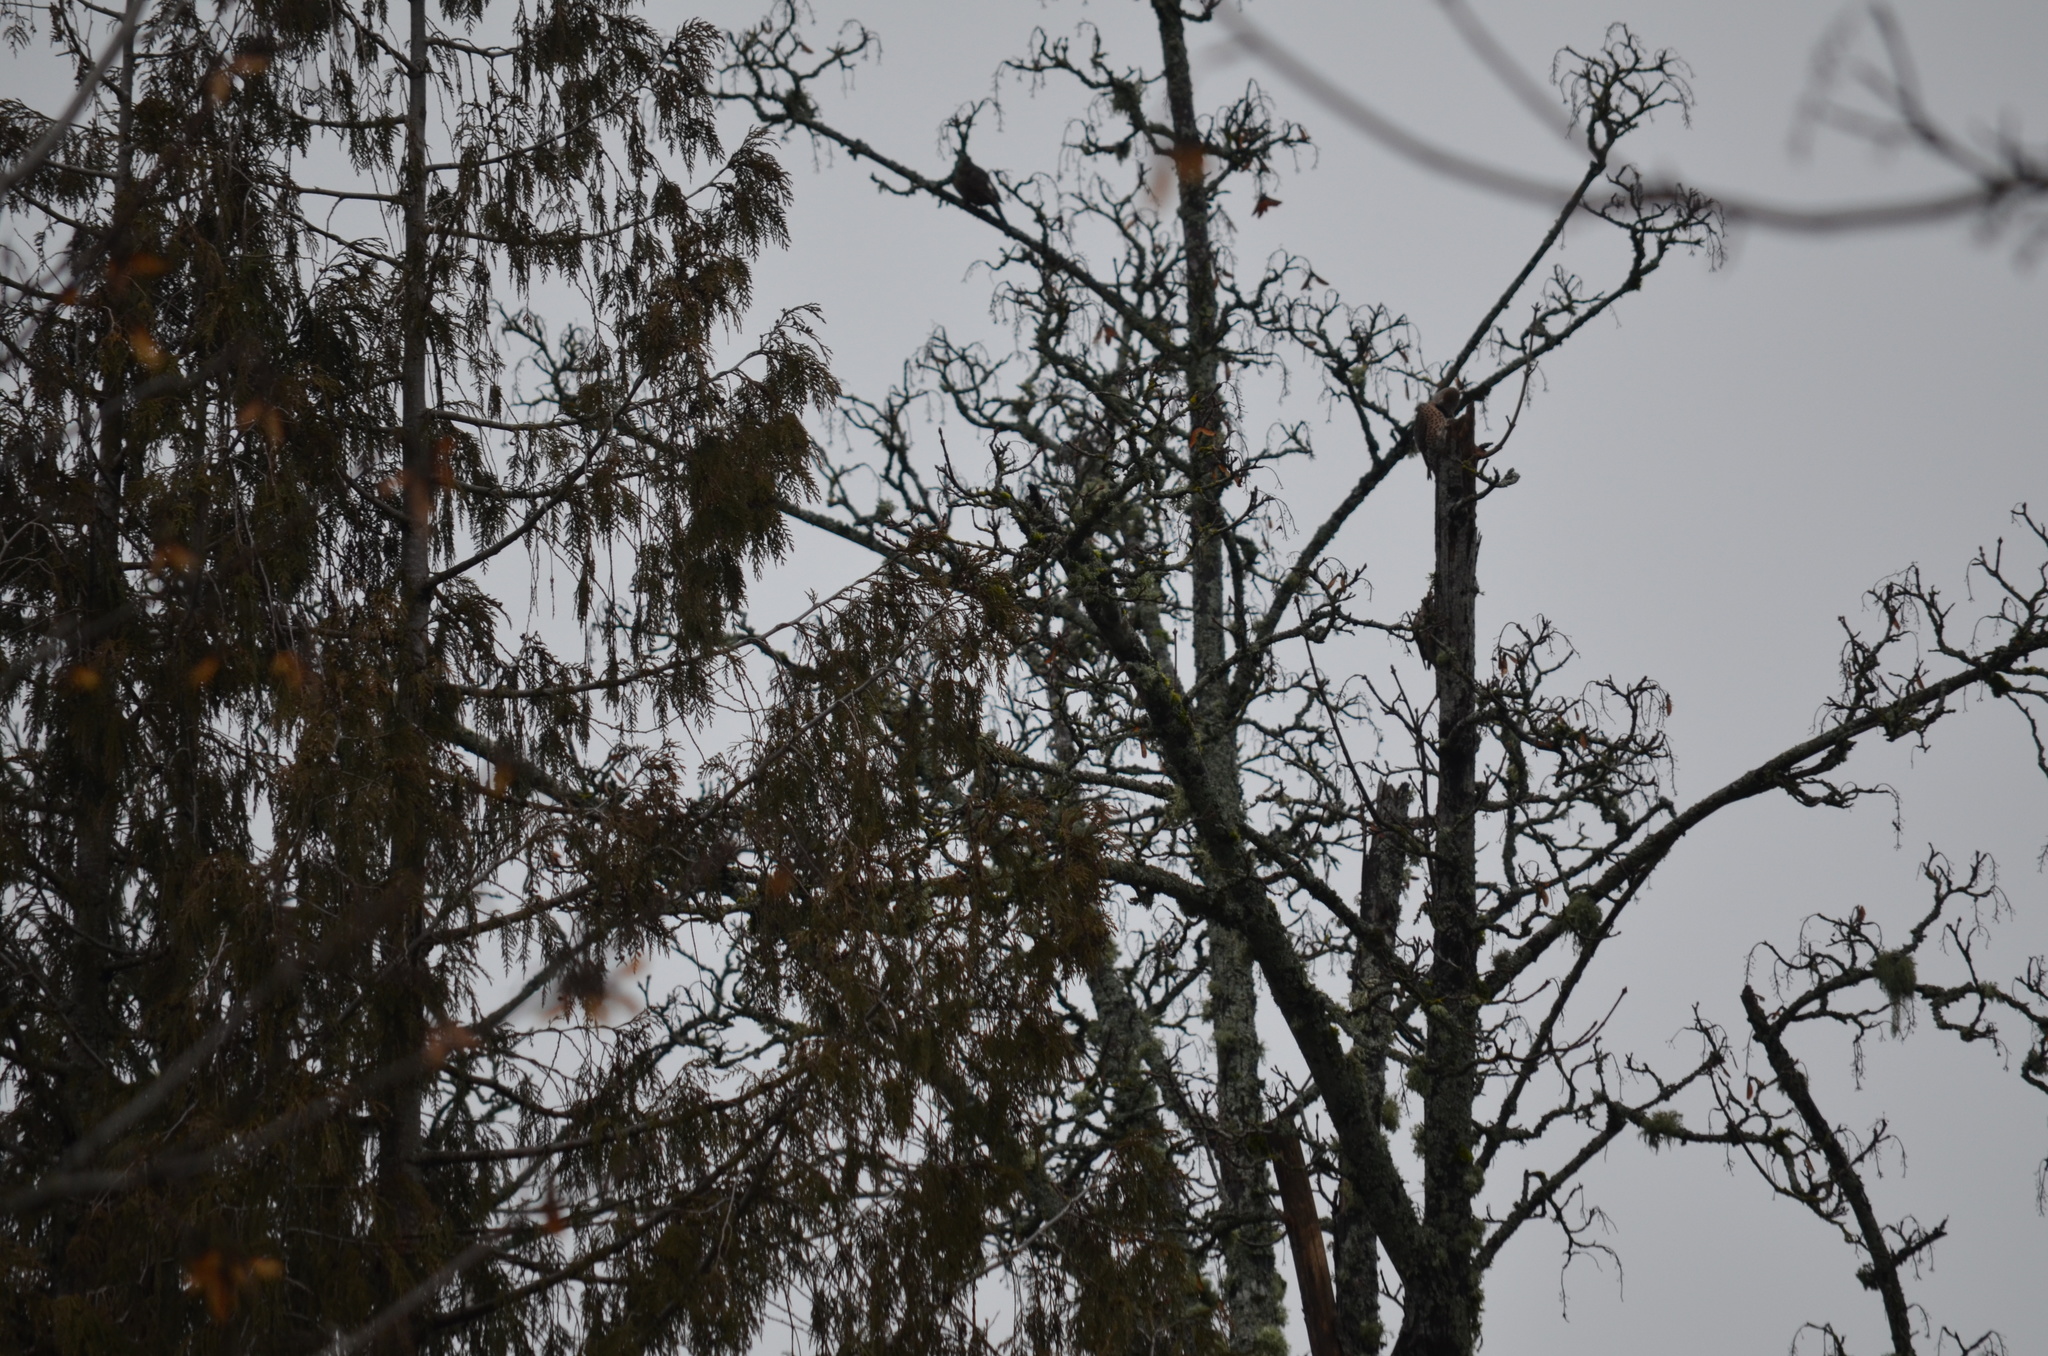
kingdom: Animalia
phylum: Chordata
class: Aves
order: Piciformes
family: Picidae
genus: Colaptes
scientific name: Colaptes auratus
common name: Northern flicker
